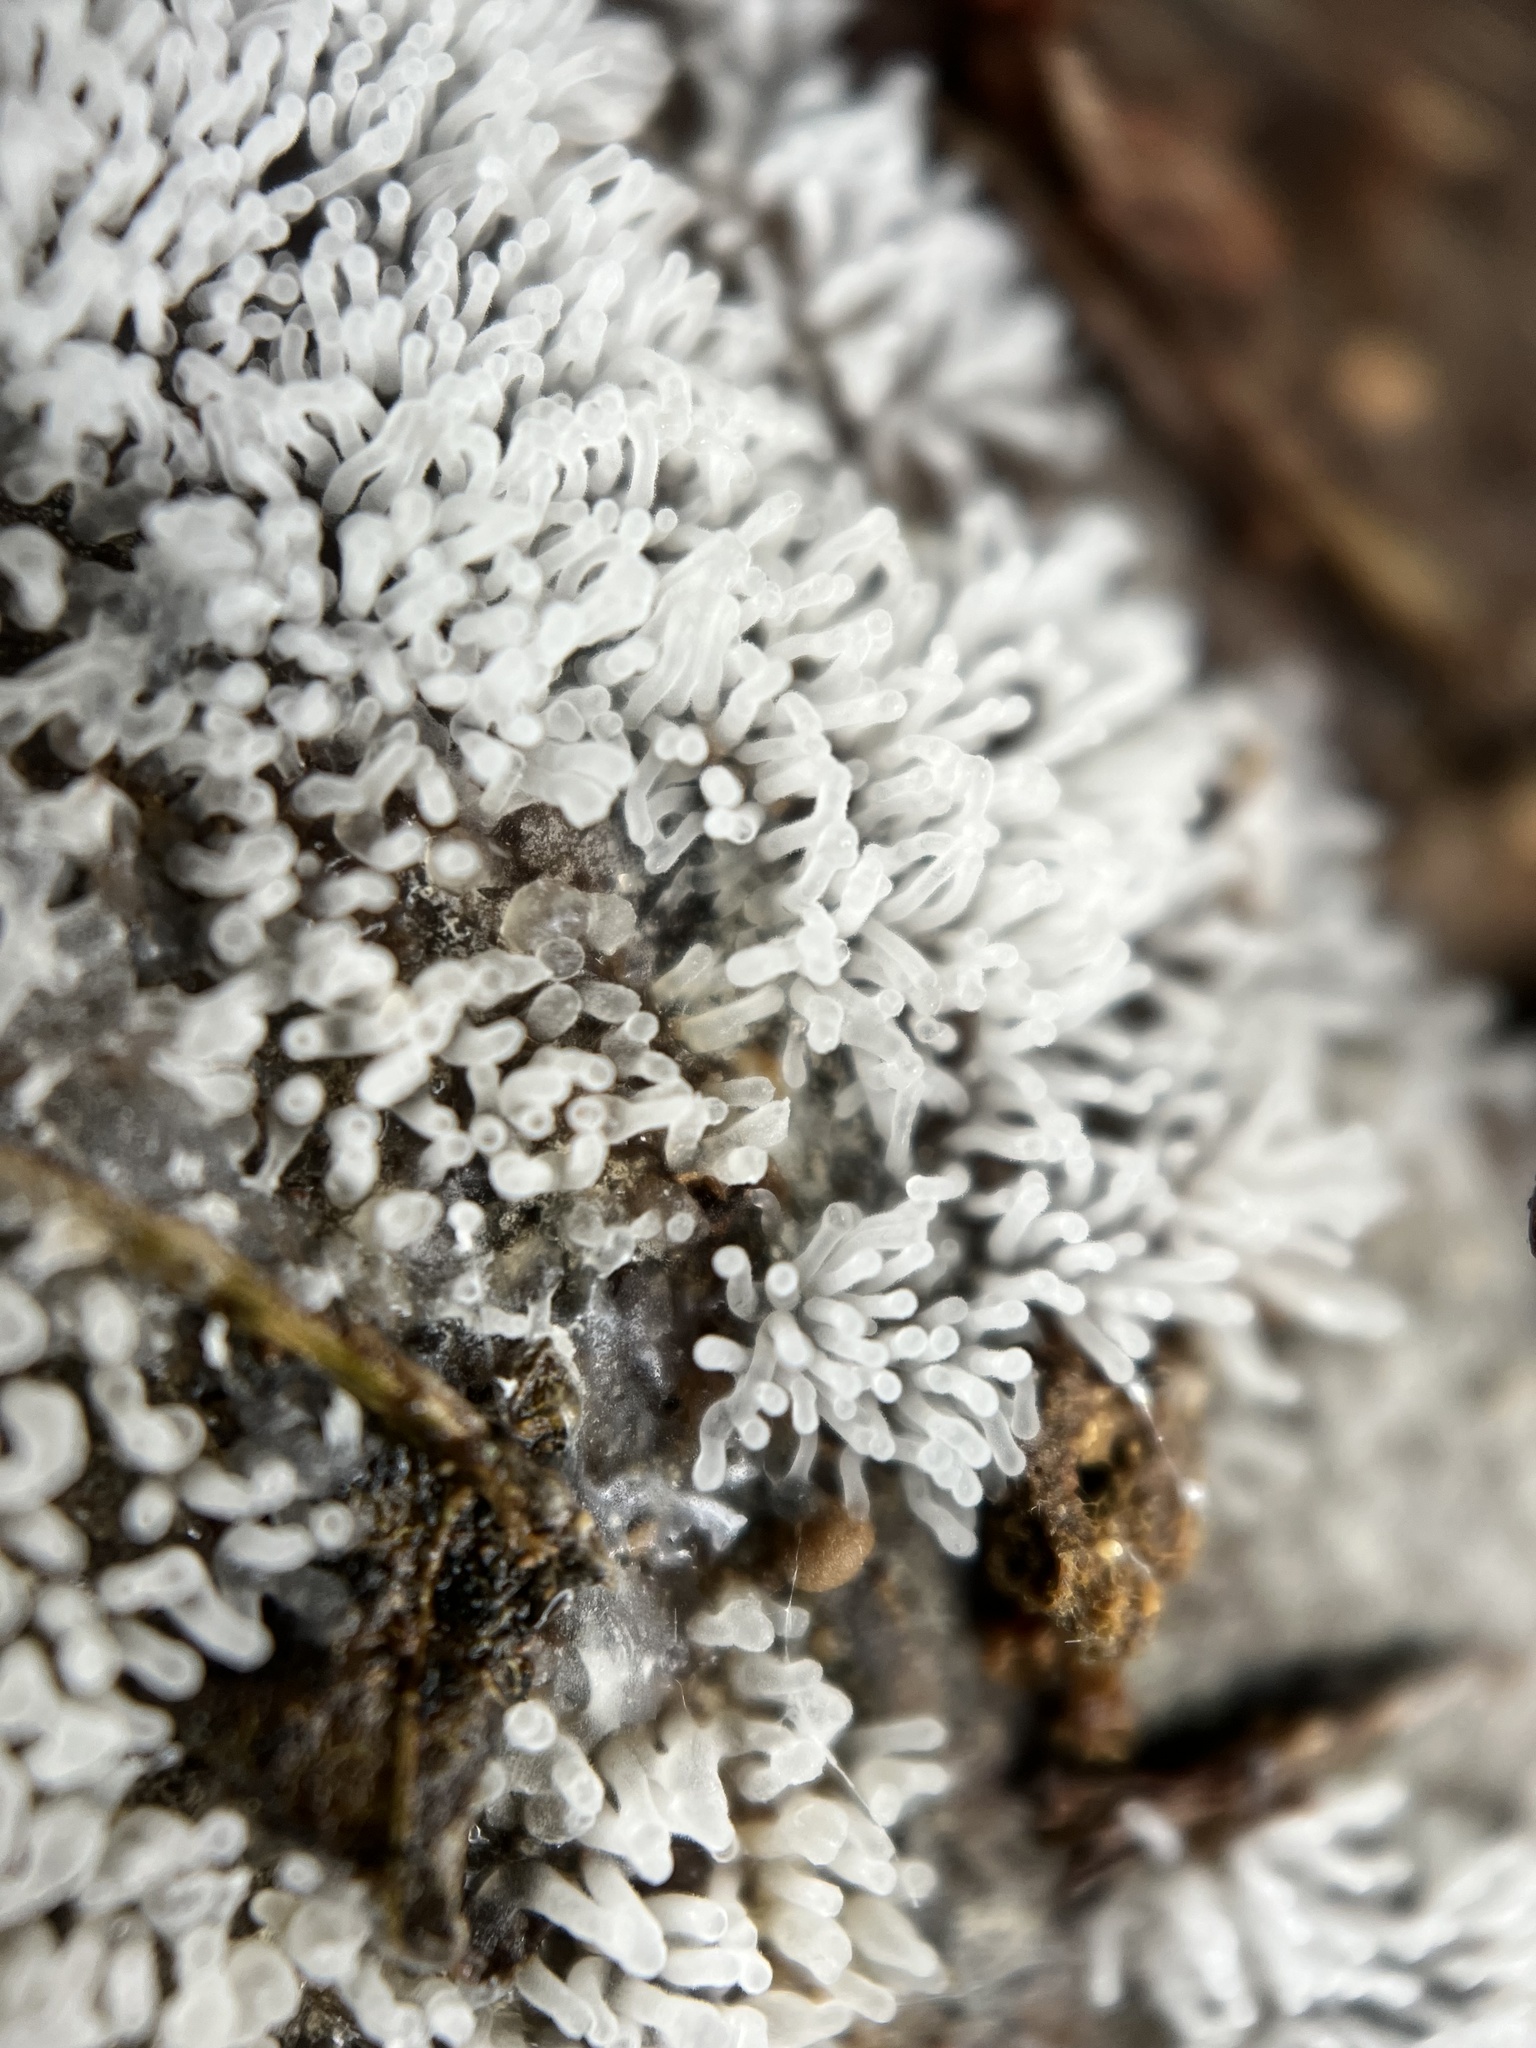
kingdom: Protozoa
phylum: Mycetozoa
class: Protosteliomycetes
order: Ceratiomyxales
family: Ceratiomyxaceae
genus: Ceratiomyxa
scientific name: Ceratiomyxa fruticulosa
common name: Honeycomb coral slime mold
